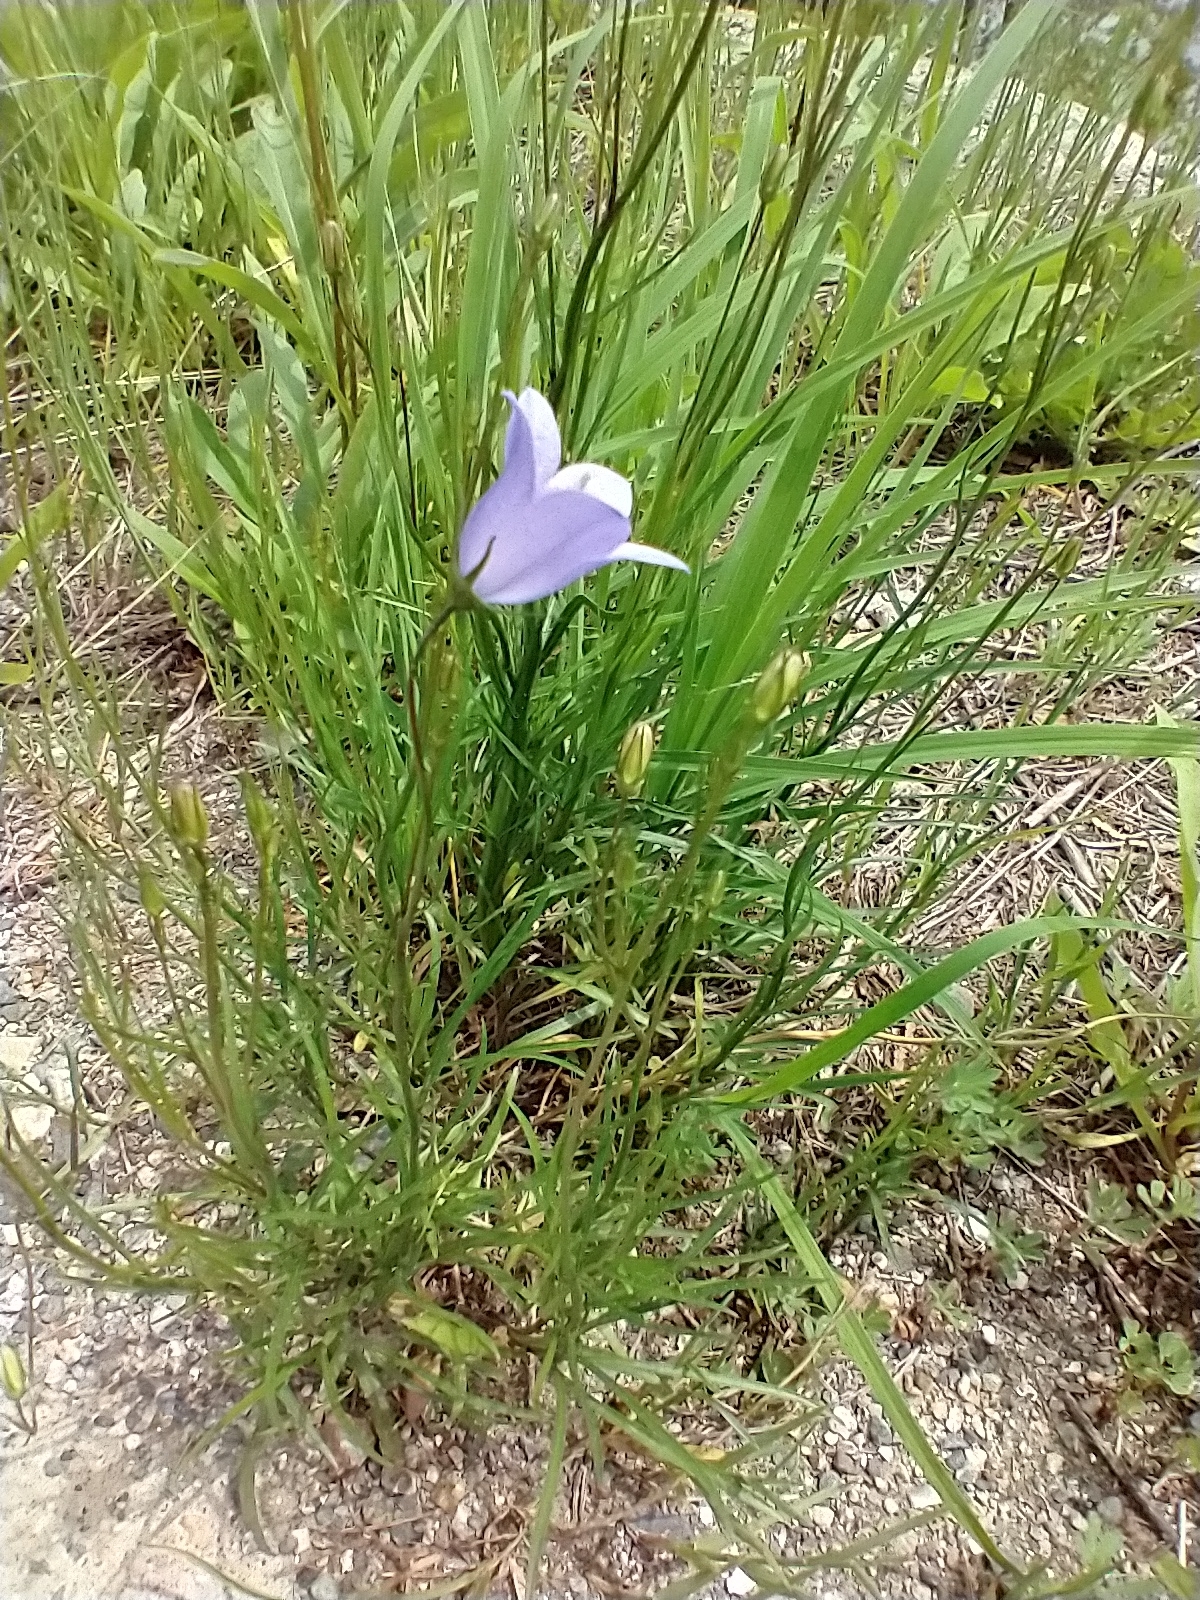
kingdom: Plantae
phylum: Tracheophyta
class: Magnoliopsida
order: Asterales
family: Campanulaceae
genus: Campanula
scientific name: Campanula intercedens
